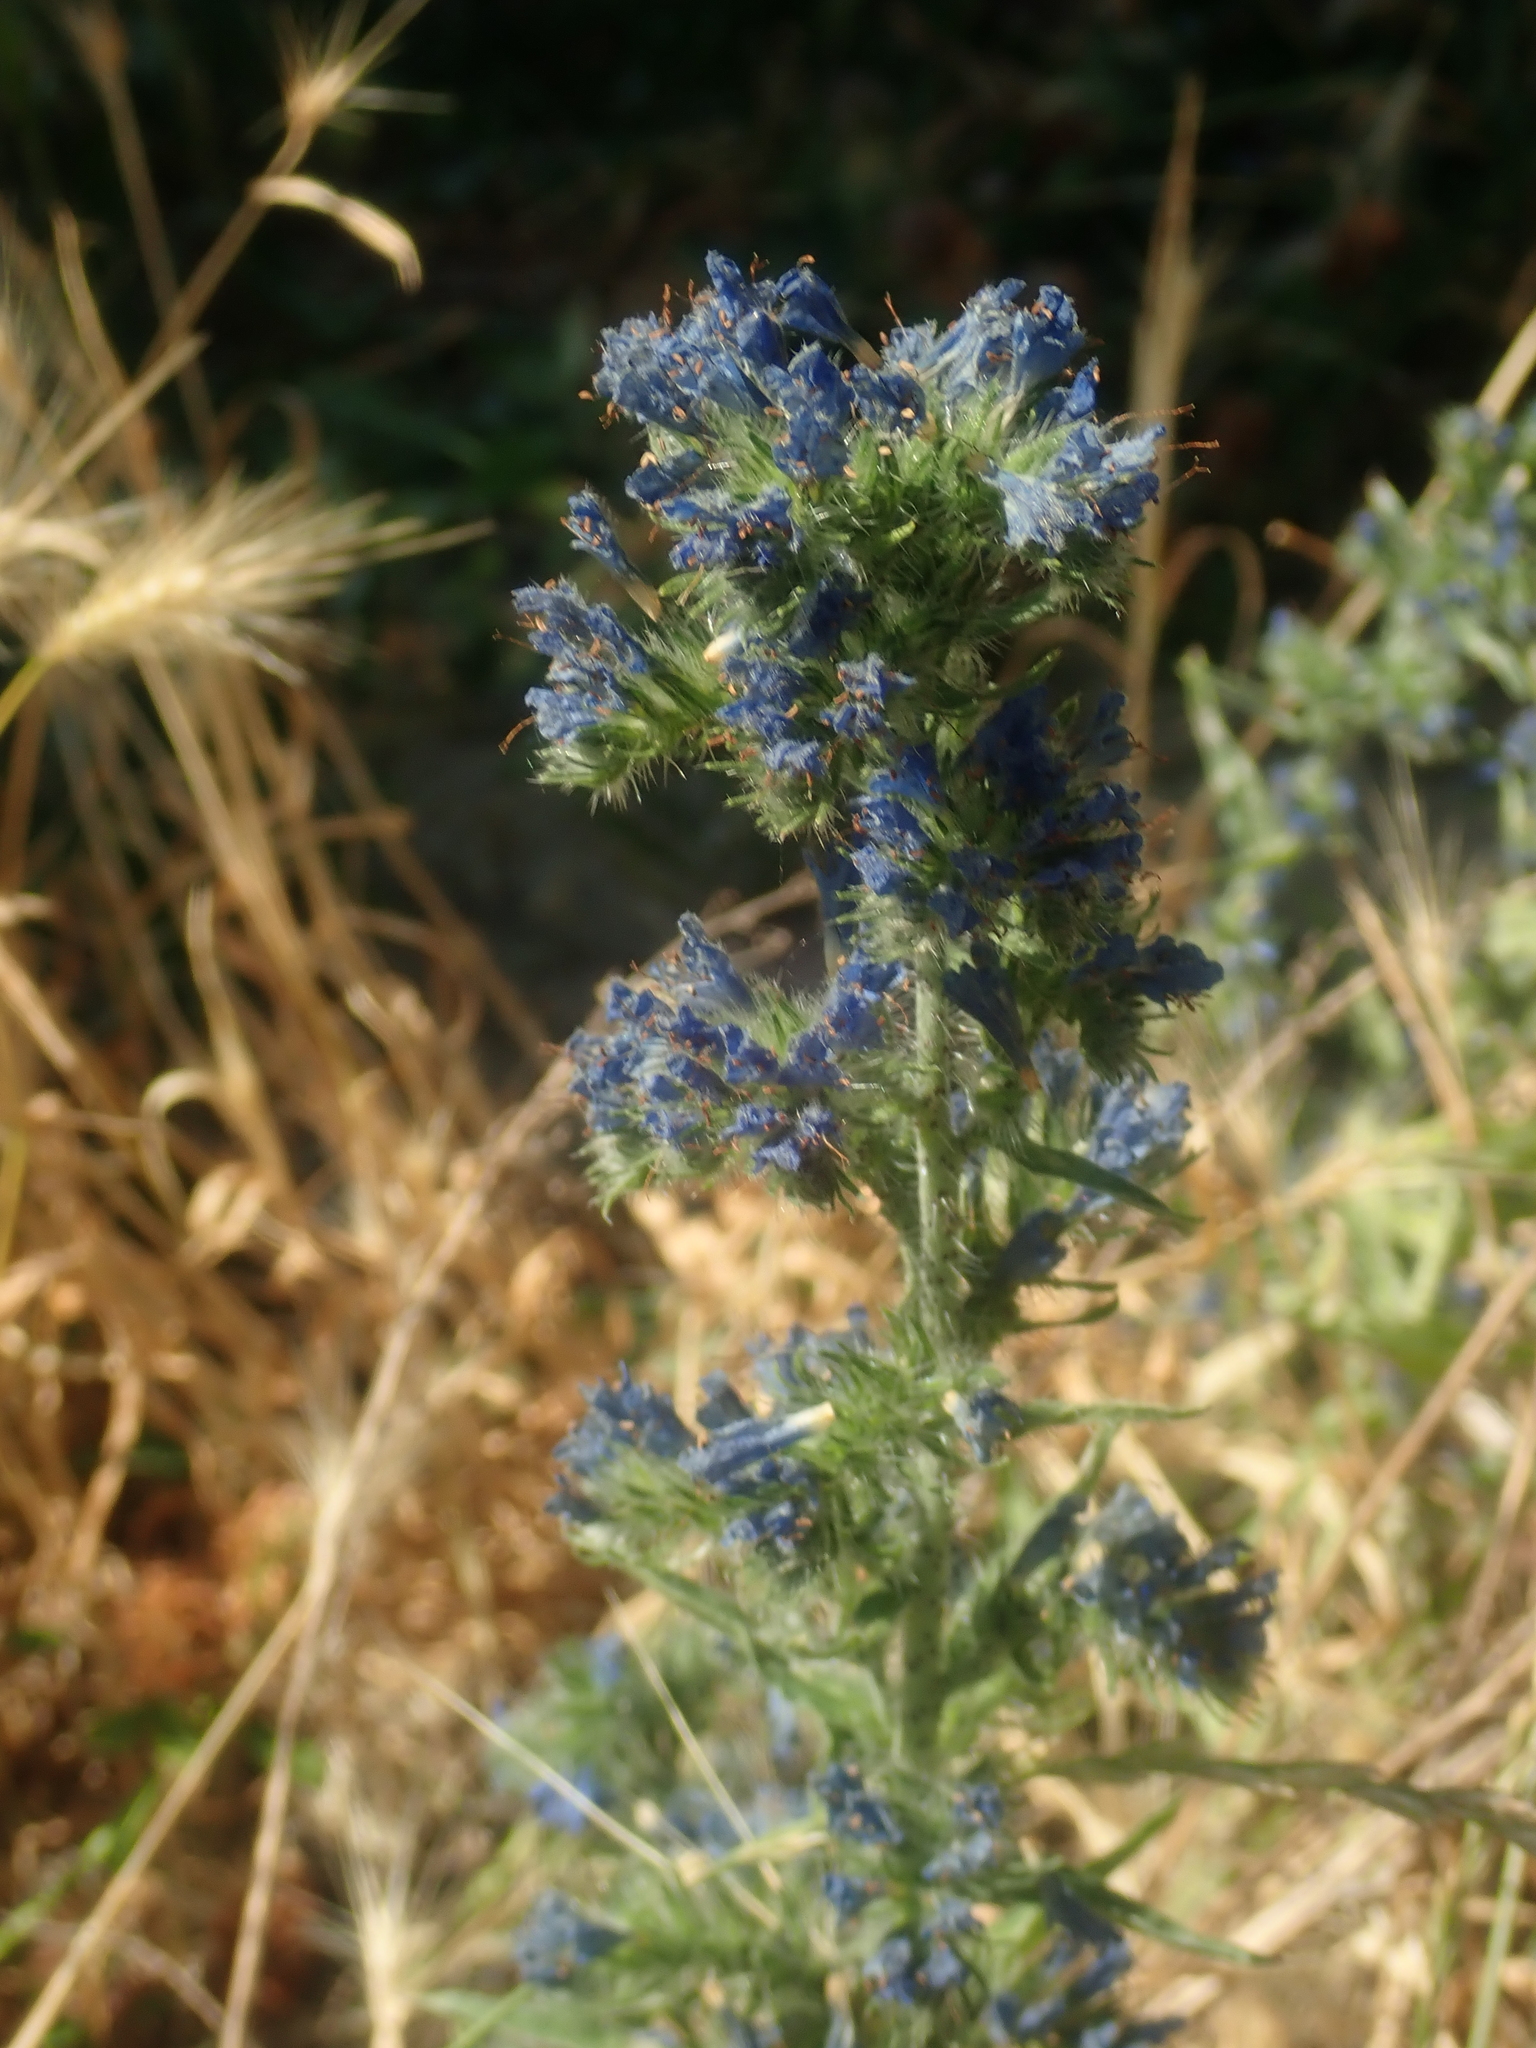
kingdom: Plantae
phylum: Tracheophyta
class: Magnoliopsida
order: Boraginales
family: Boraginaceae
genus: Echium
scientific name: Echium vulgare
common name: Common viper's bugloss
